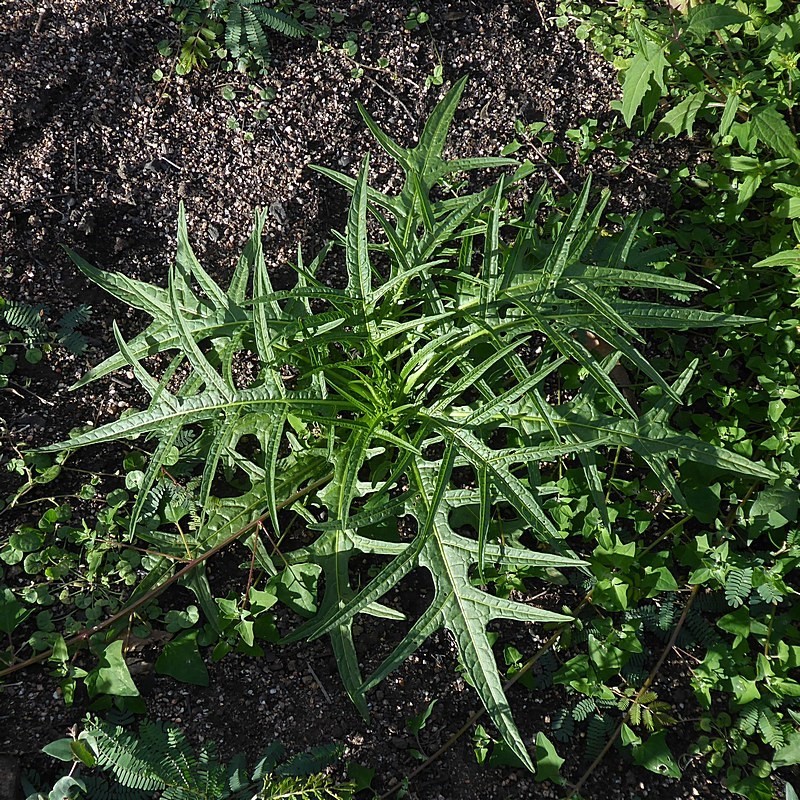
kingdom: Plantae
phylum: Tracheophyta
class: Magnoliopsida
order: Solanales
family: Solanaceae
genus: Solanum
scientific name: Solanum aviculare
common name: New zealand nightshade
